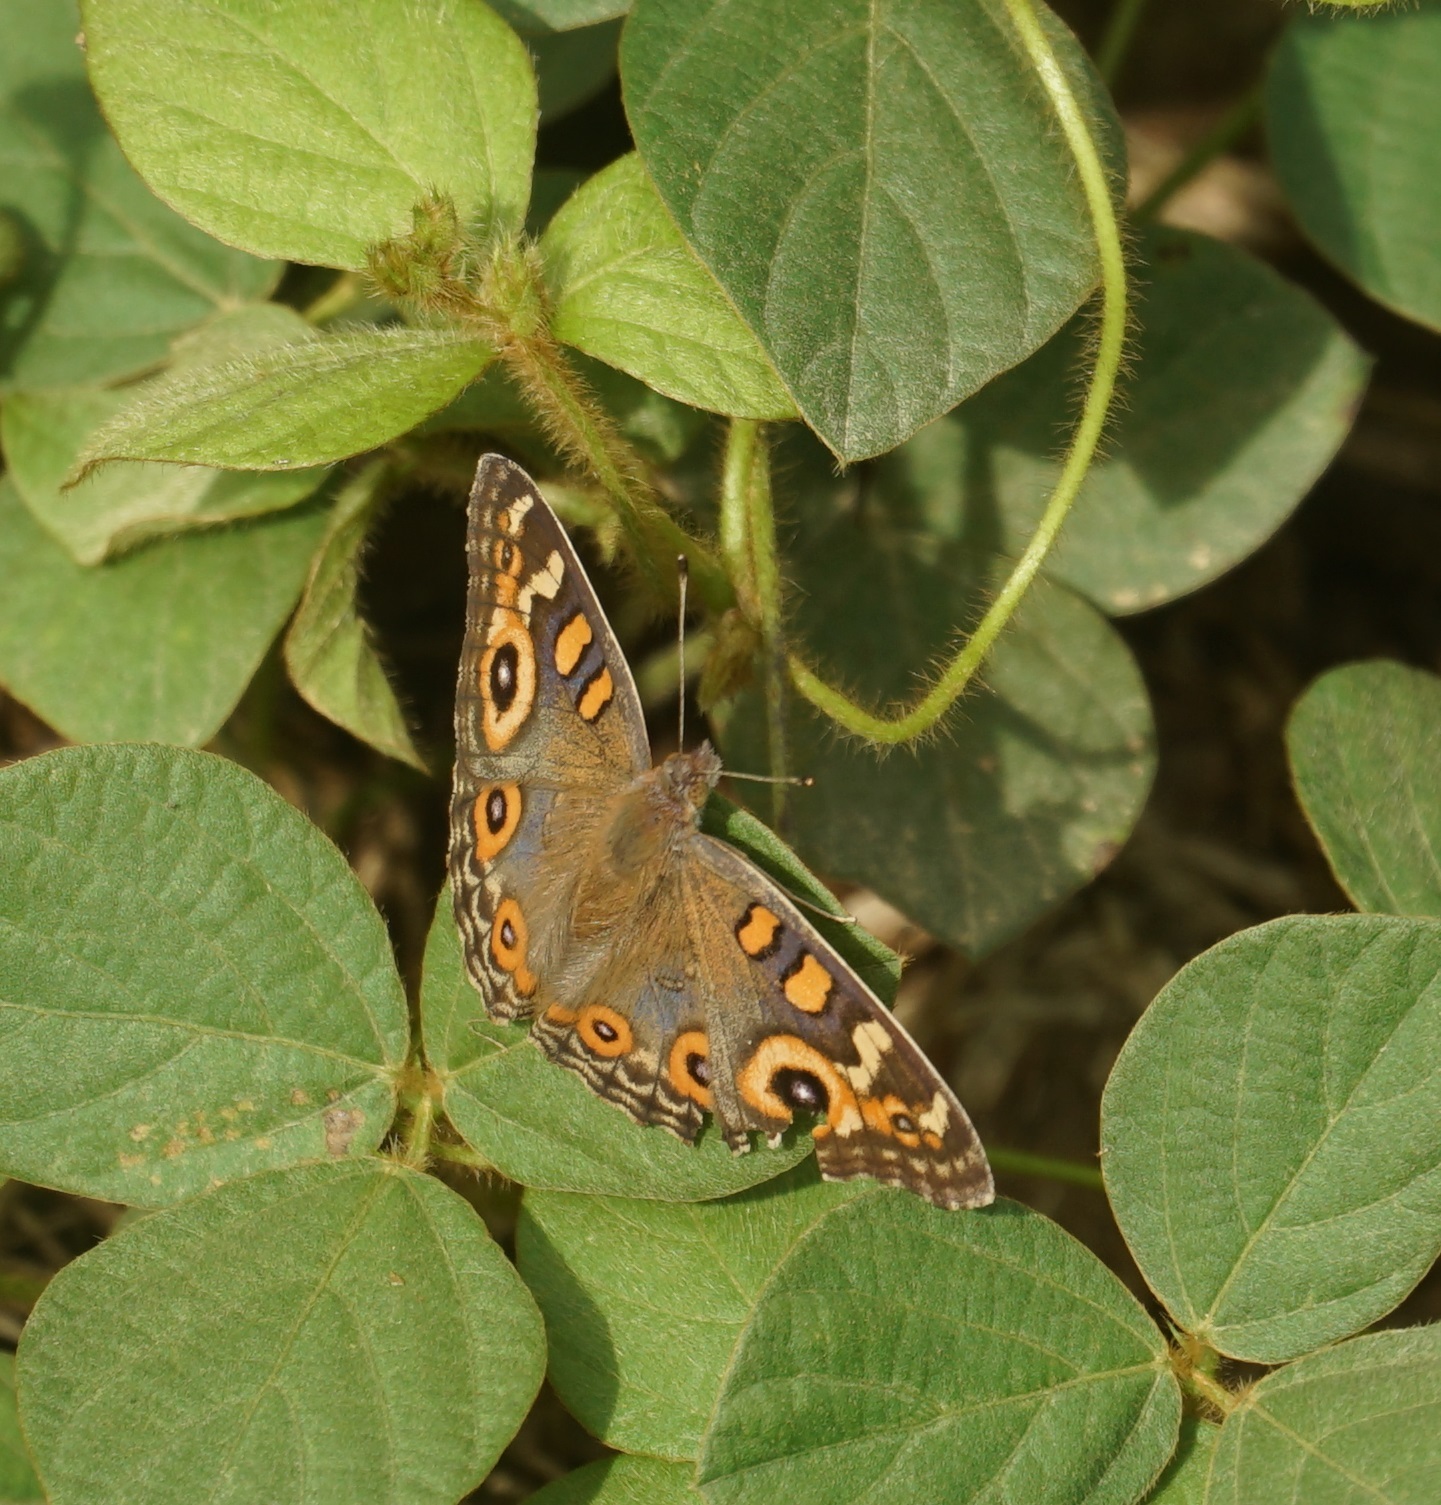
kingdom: Animalia
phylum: Arthropoda
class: Insecta
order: Lepidoptera
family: Nymphalidae
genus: Junonia
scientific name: Junonia villida
